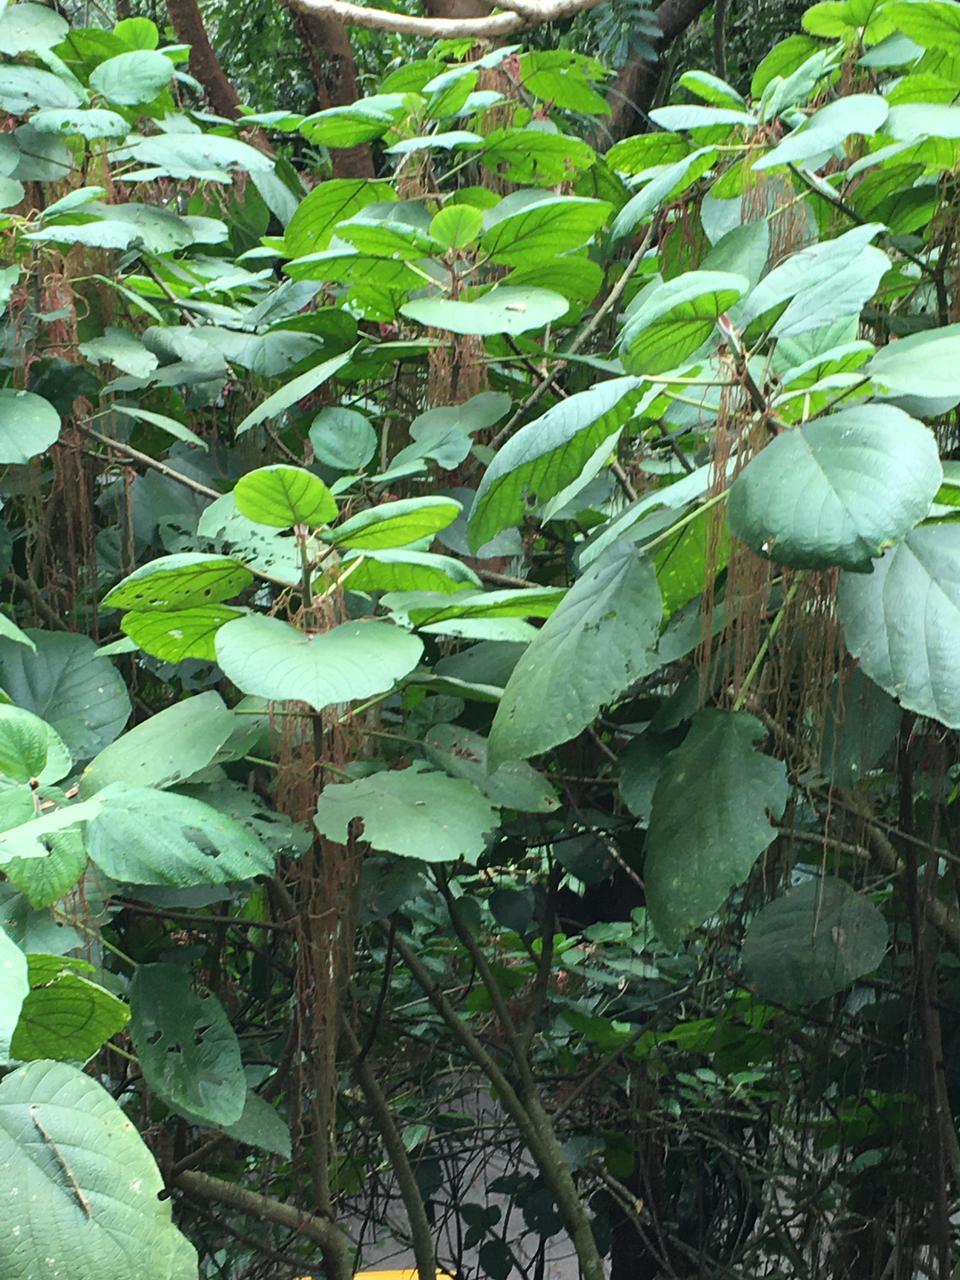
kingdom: Plantae
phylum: Tracheophyta
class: Magnoliopsida
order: Rosales
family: Urticaceae
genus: Myriocarpa
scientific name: Myriocarpa longipes
